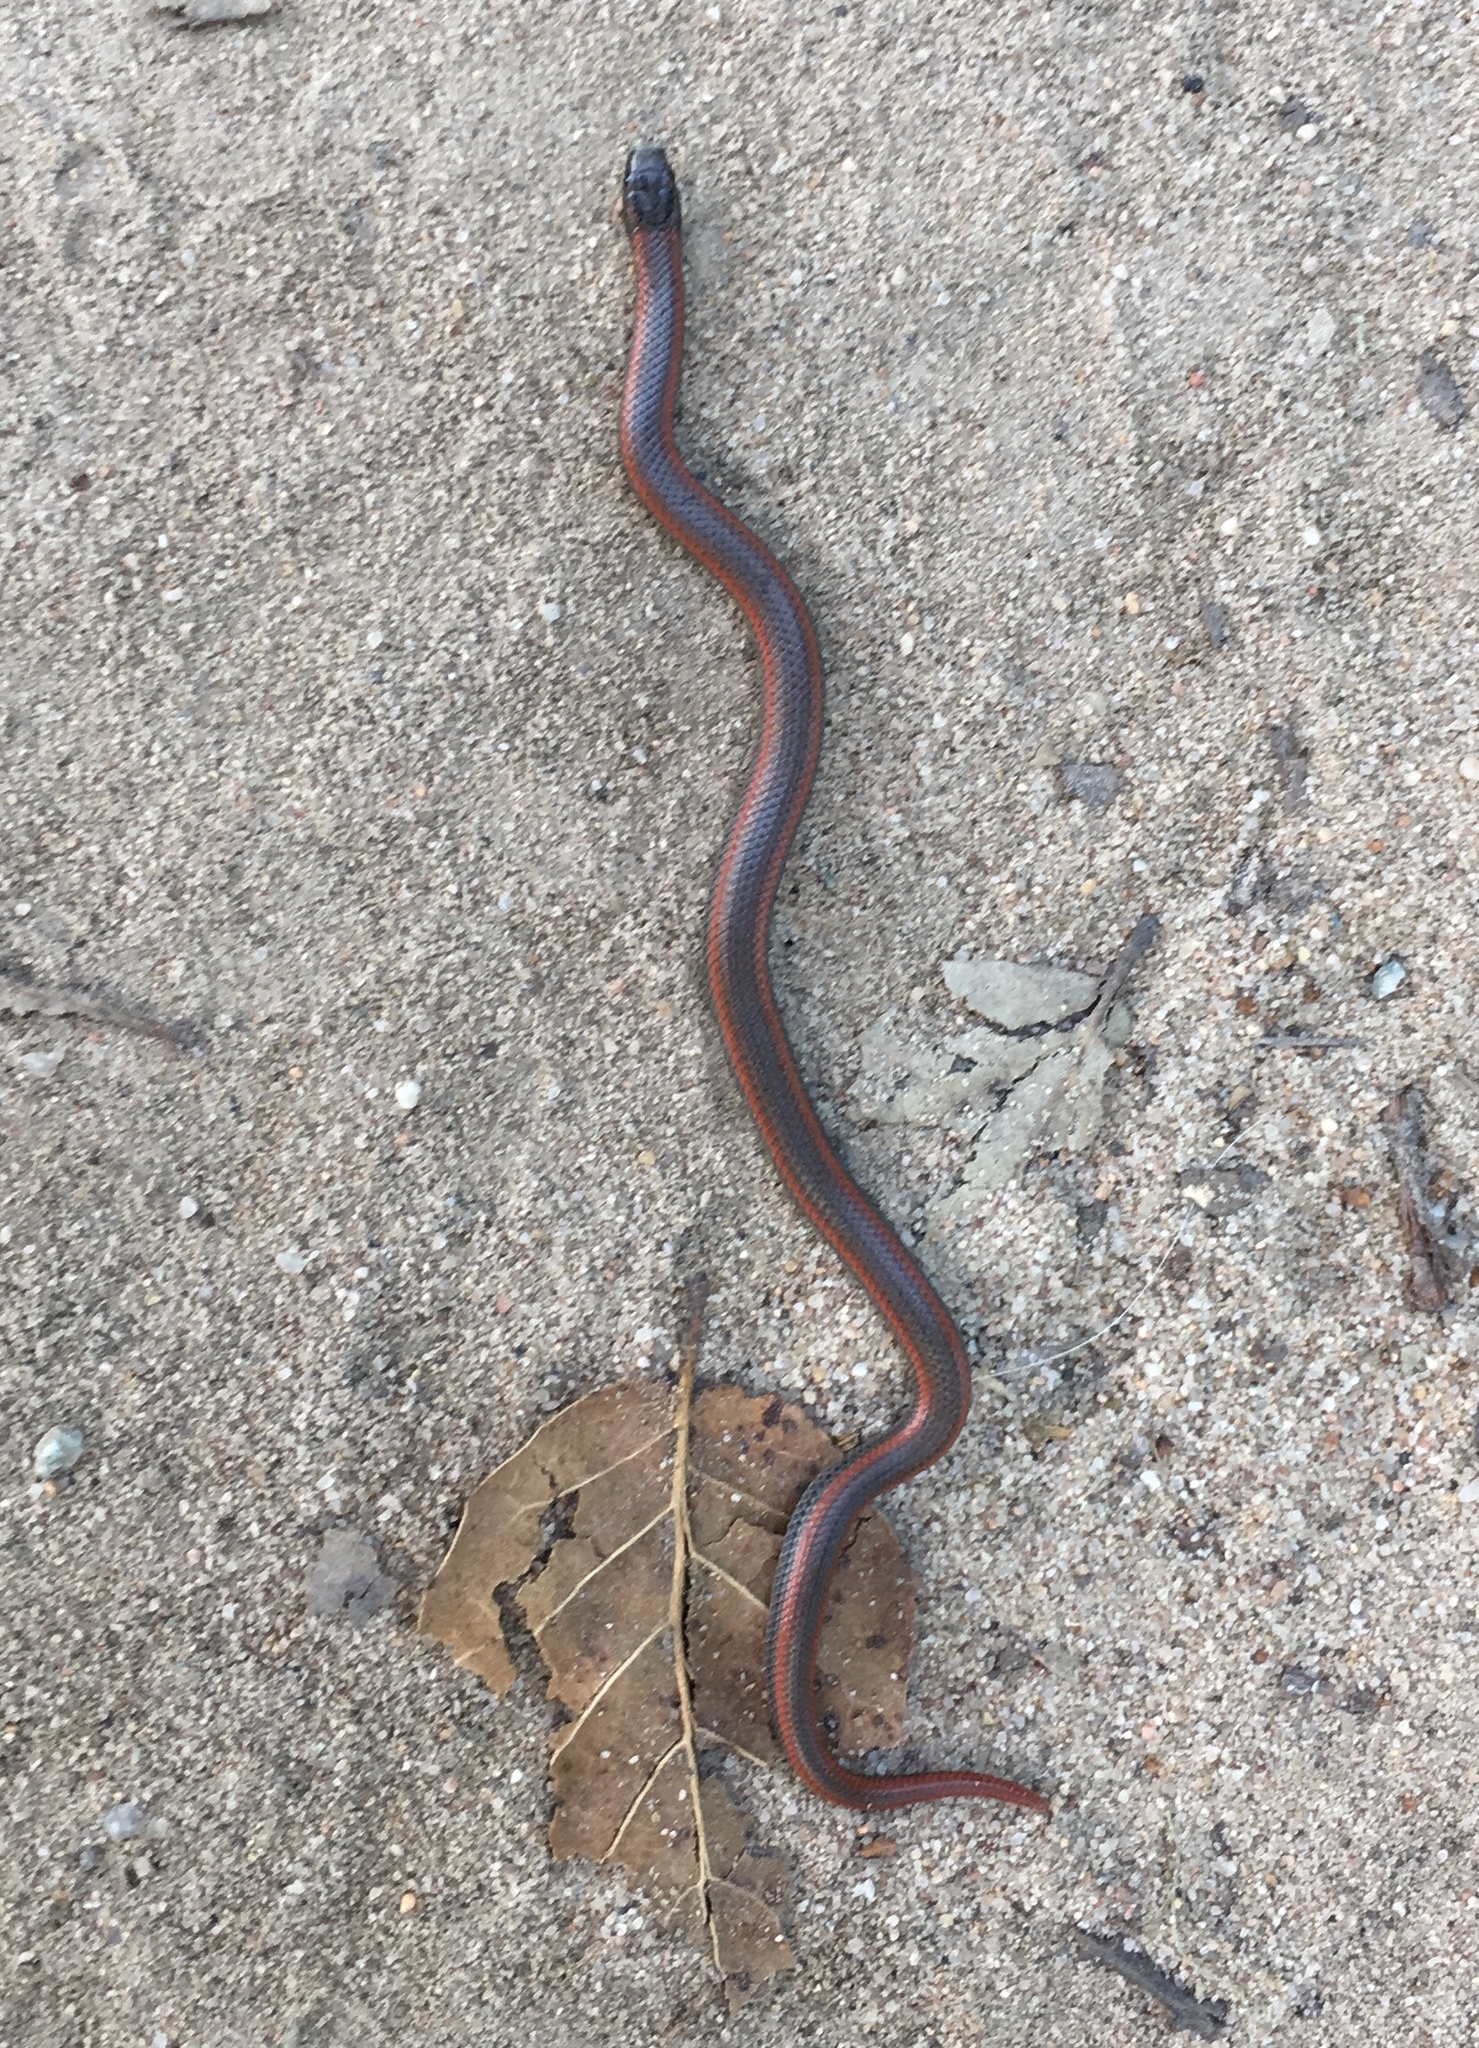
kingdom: Animalia
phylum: Chordata
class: Squamata
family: Colubridae
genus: Contia
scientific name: Contia tenuis
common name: Sharptail snake
